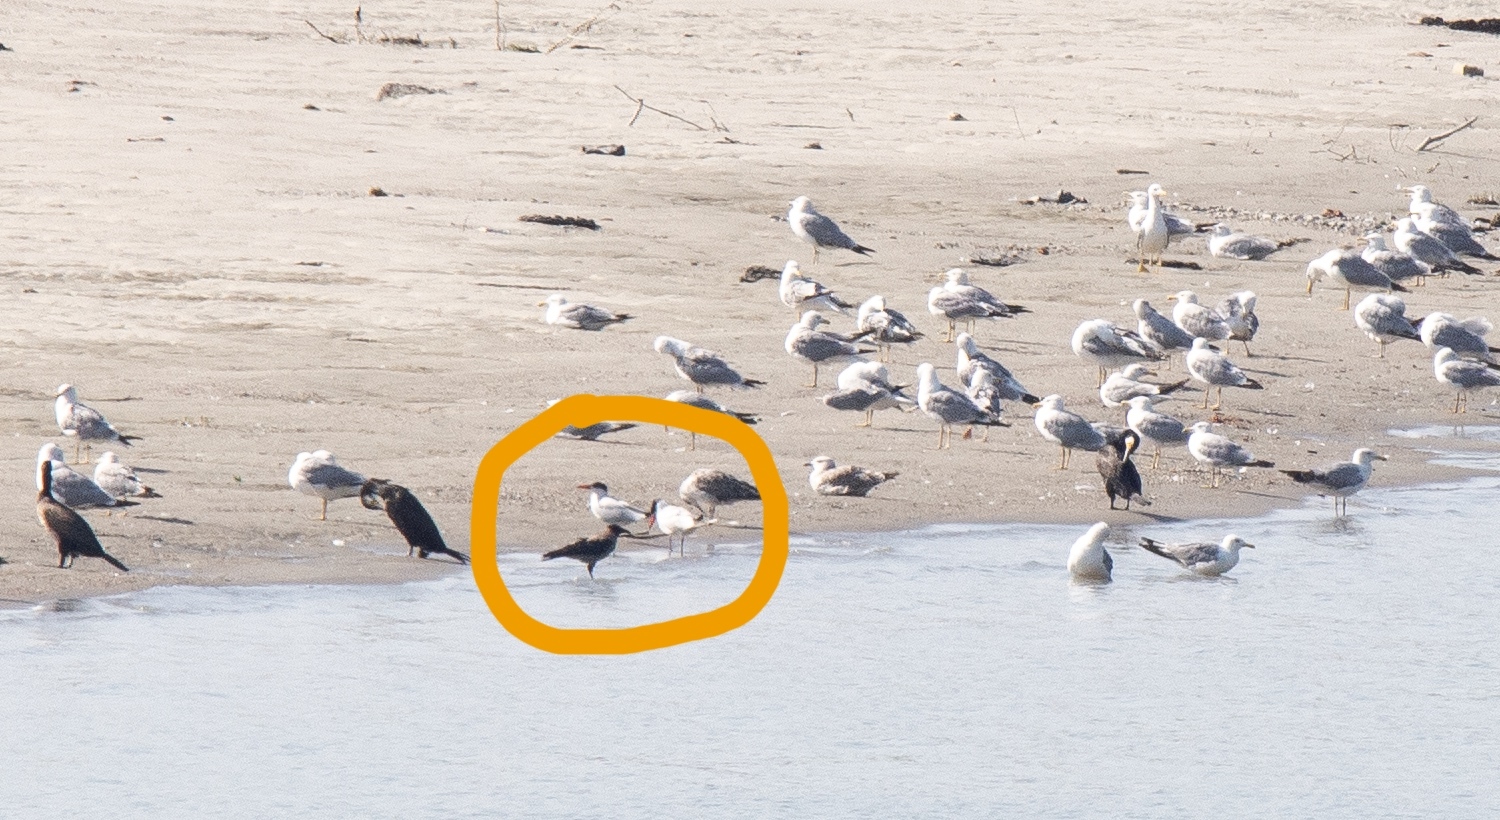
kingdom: Animalia
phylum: Chordata
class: Aves
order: Charadriiformes
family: Laridae
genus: Hydroprogne
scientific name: Hydroprogne caspia
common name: Caspian tern
